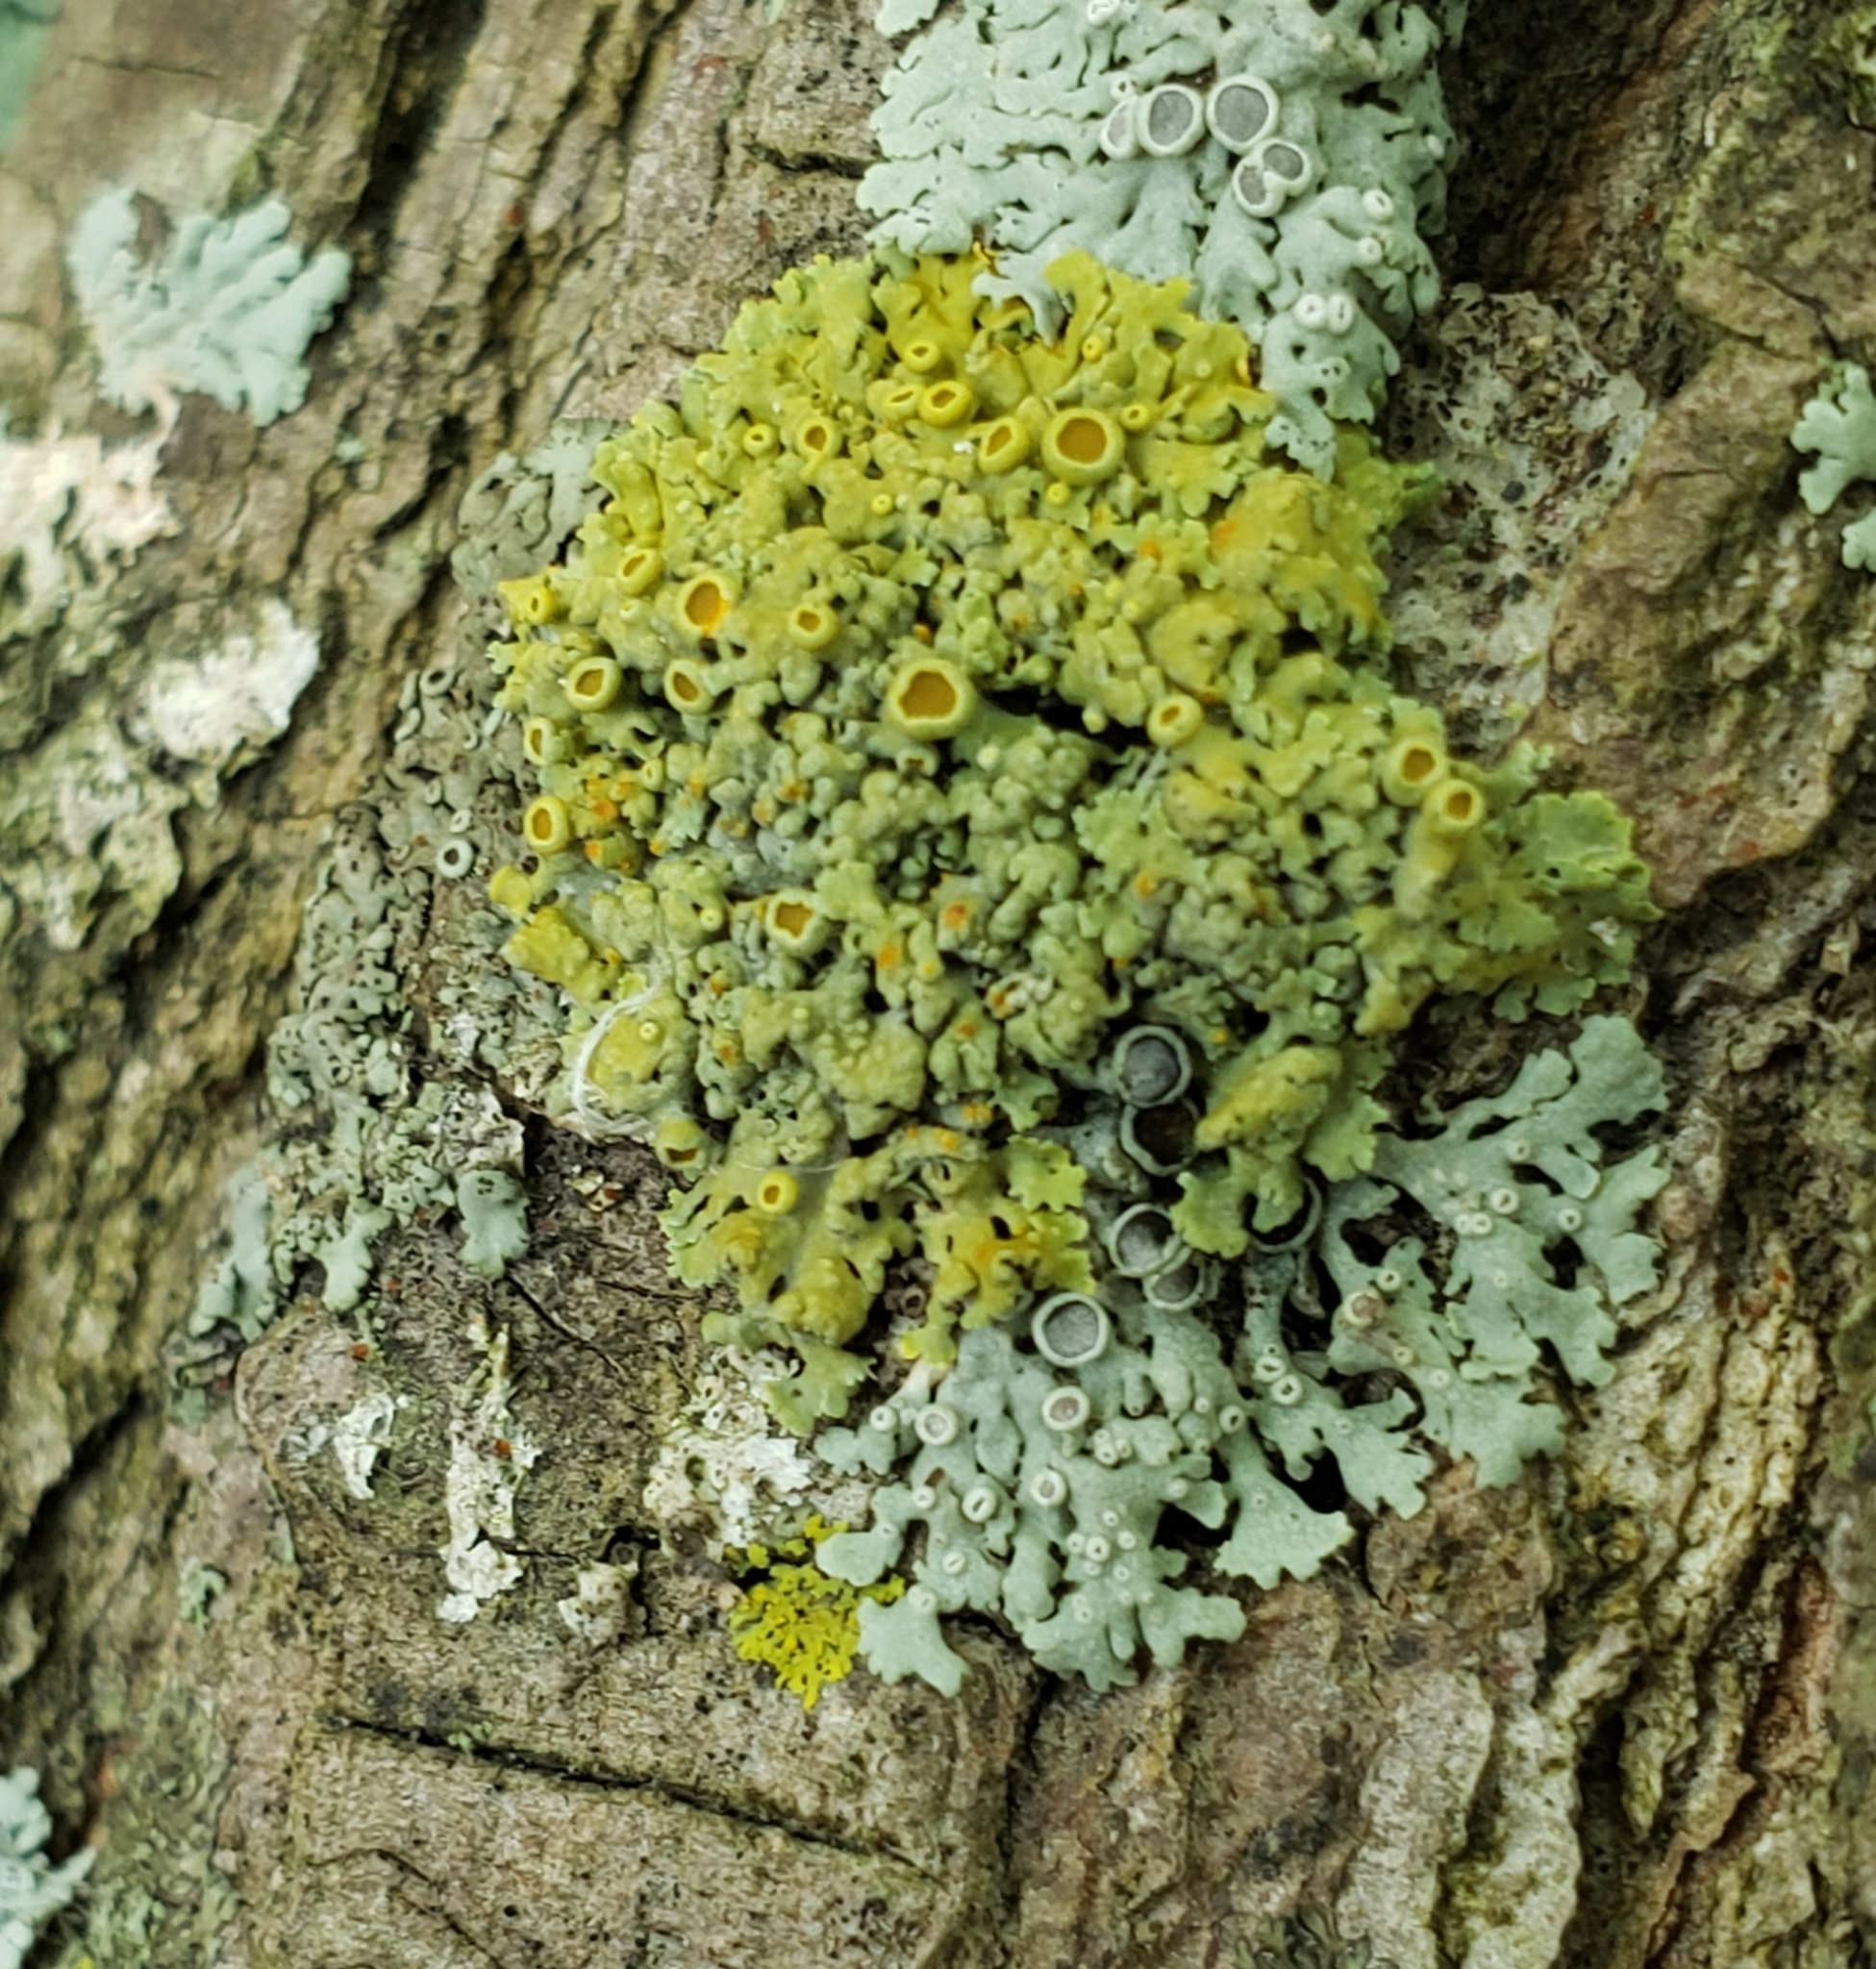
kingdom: Fungi
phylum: Ascomycota
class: Lecanoromycetes
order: Teloschistales
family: Teloschistaceae
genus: Gallowayella
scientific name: Gallowayella hasseana
